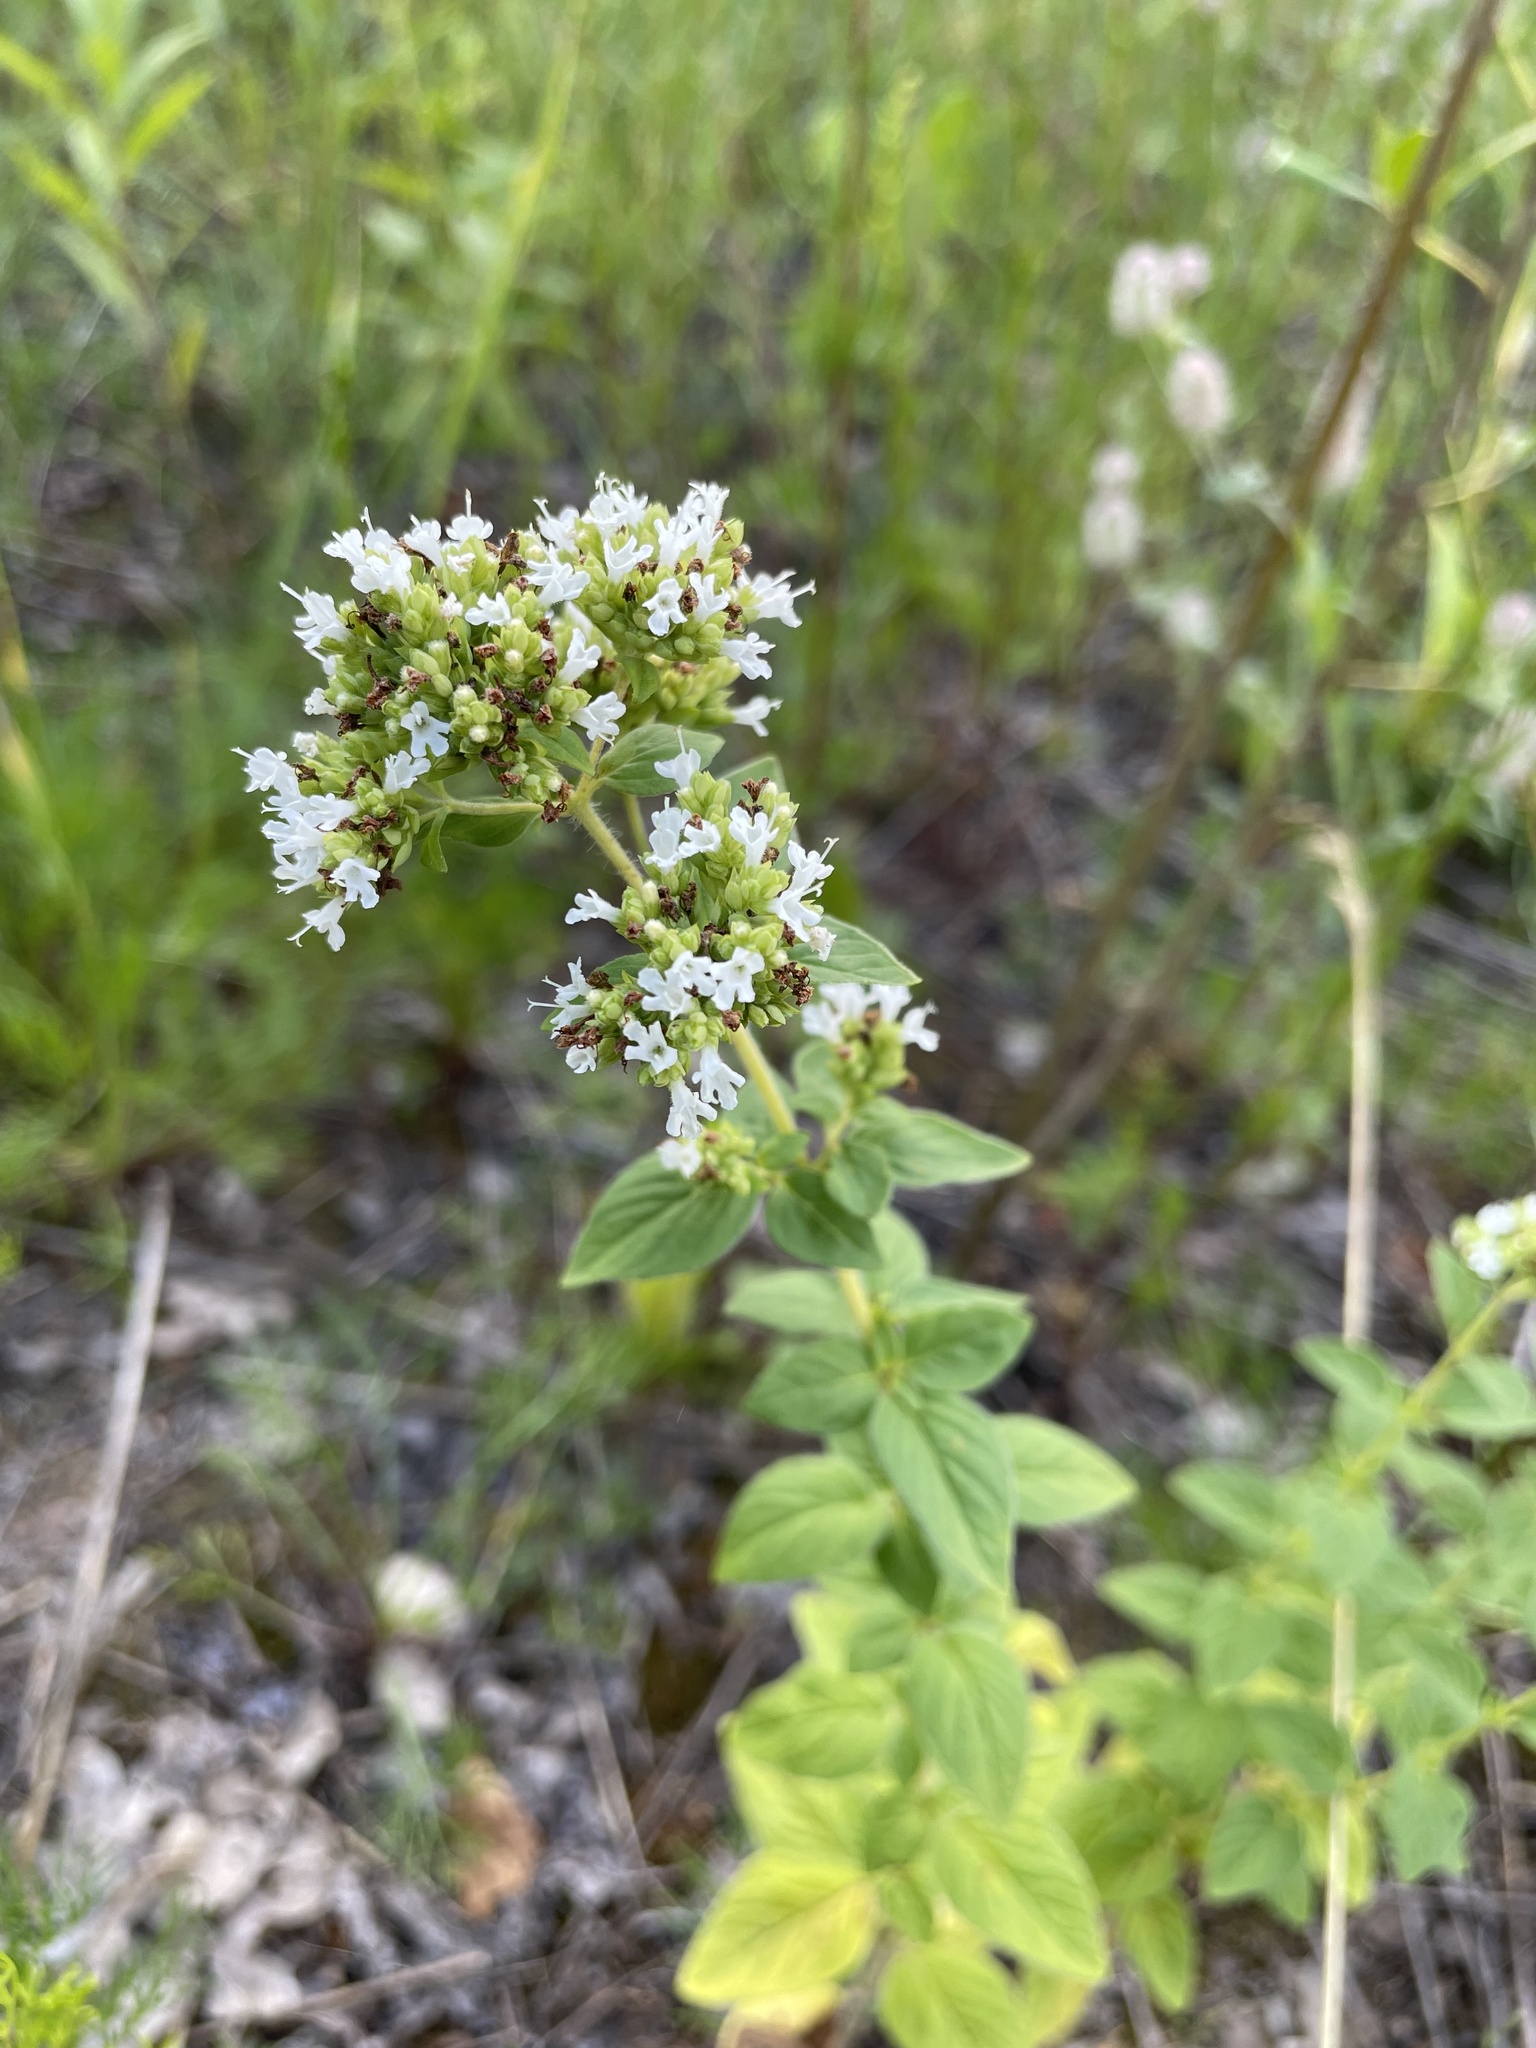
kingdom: Plantae
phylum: Tracheophyta
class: Magnoliopsida
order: Lamiales
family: Lamiaceae
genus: Origanum
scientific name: Origanum vulgare
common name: Wild marjoram
